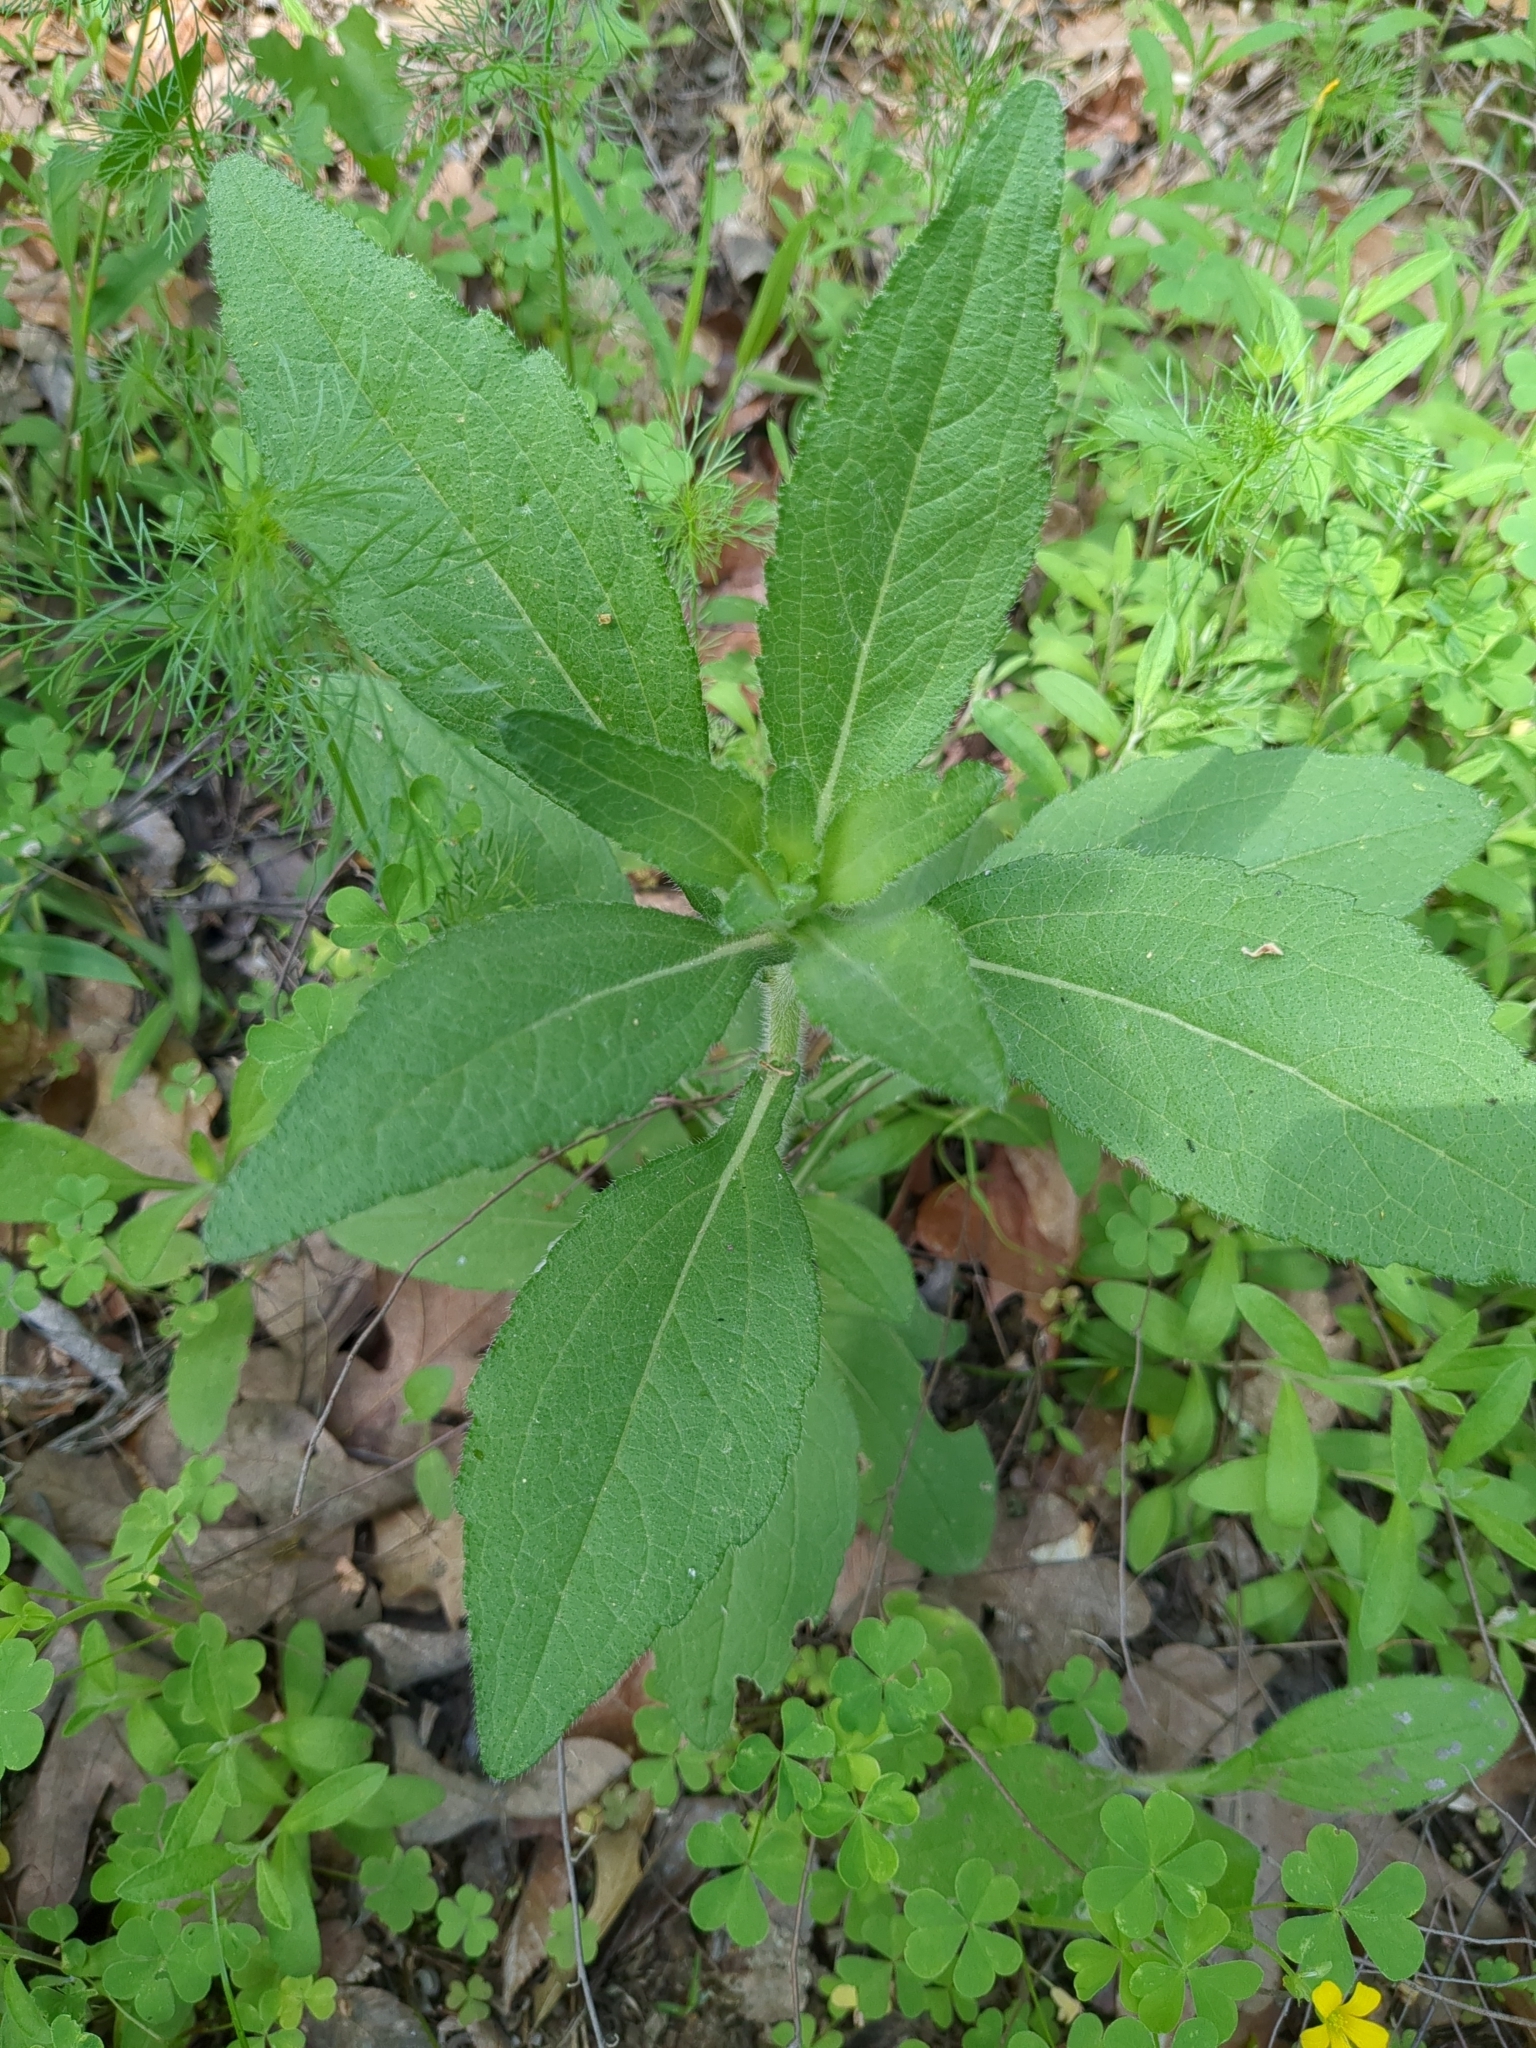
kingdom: Plantae
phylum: Tracheophyta
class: Magnoliopsida
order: Asterales
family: Asteraceae
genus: Rudbeckia
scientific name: Rudbeckia hirta
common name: Black-eyed-susan
